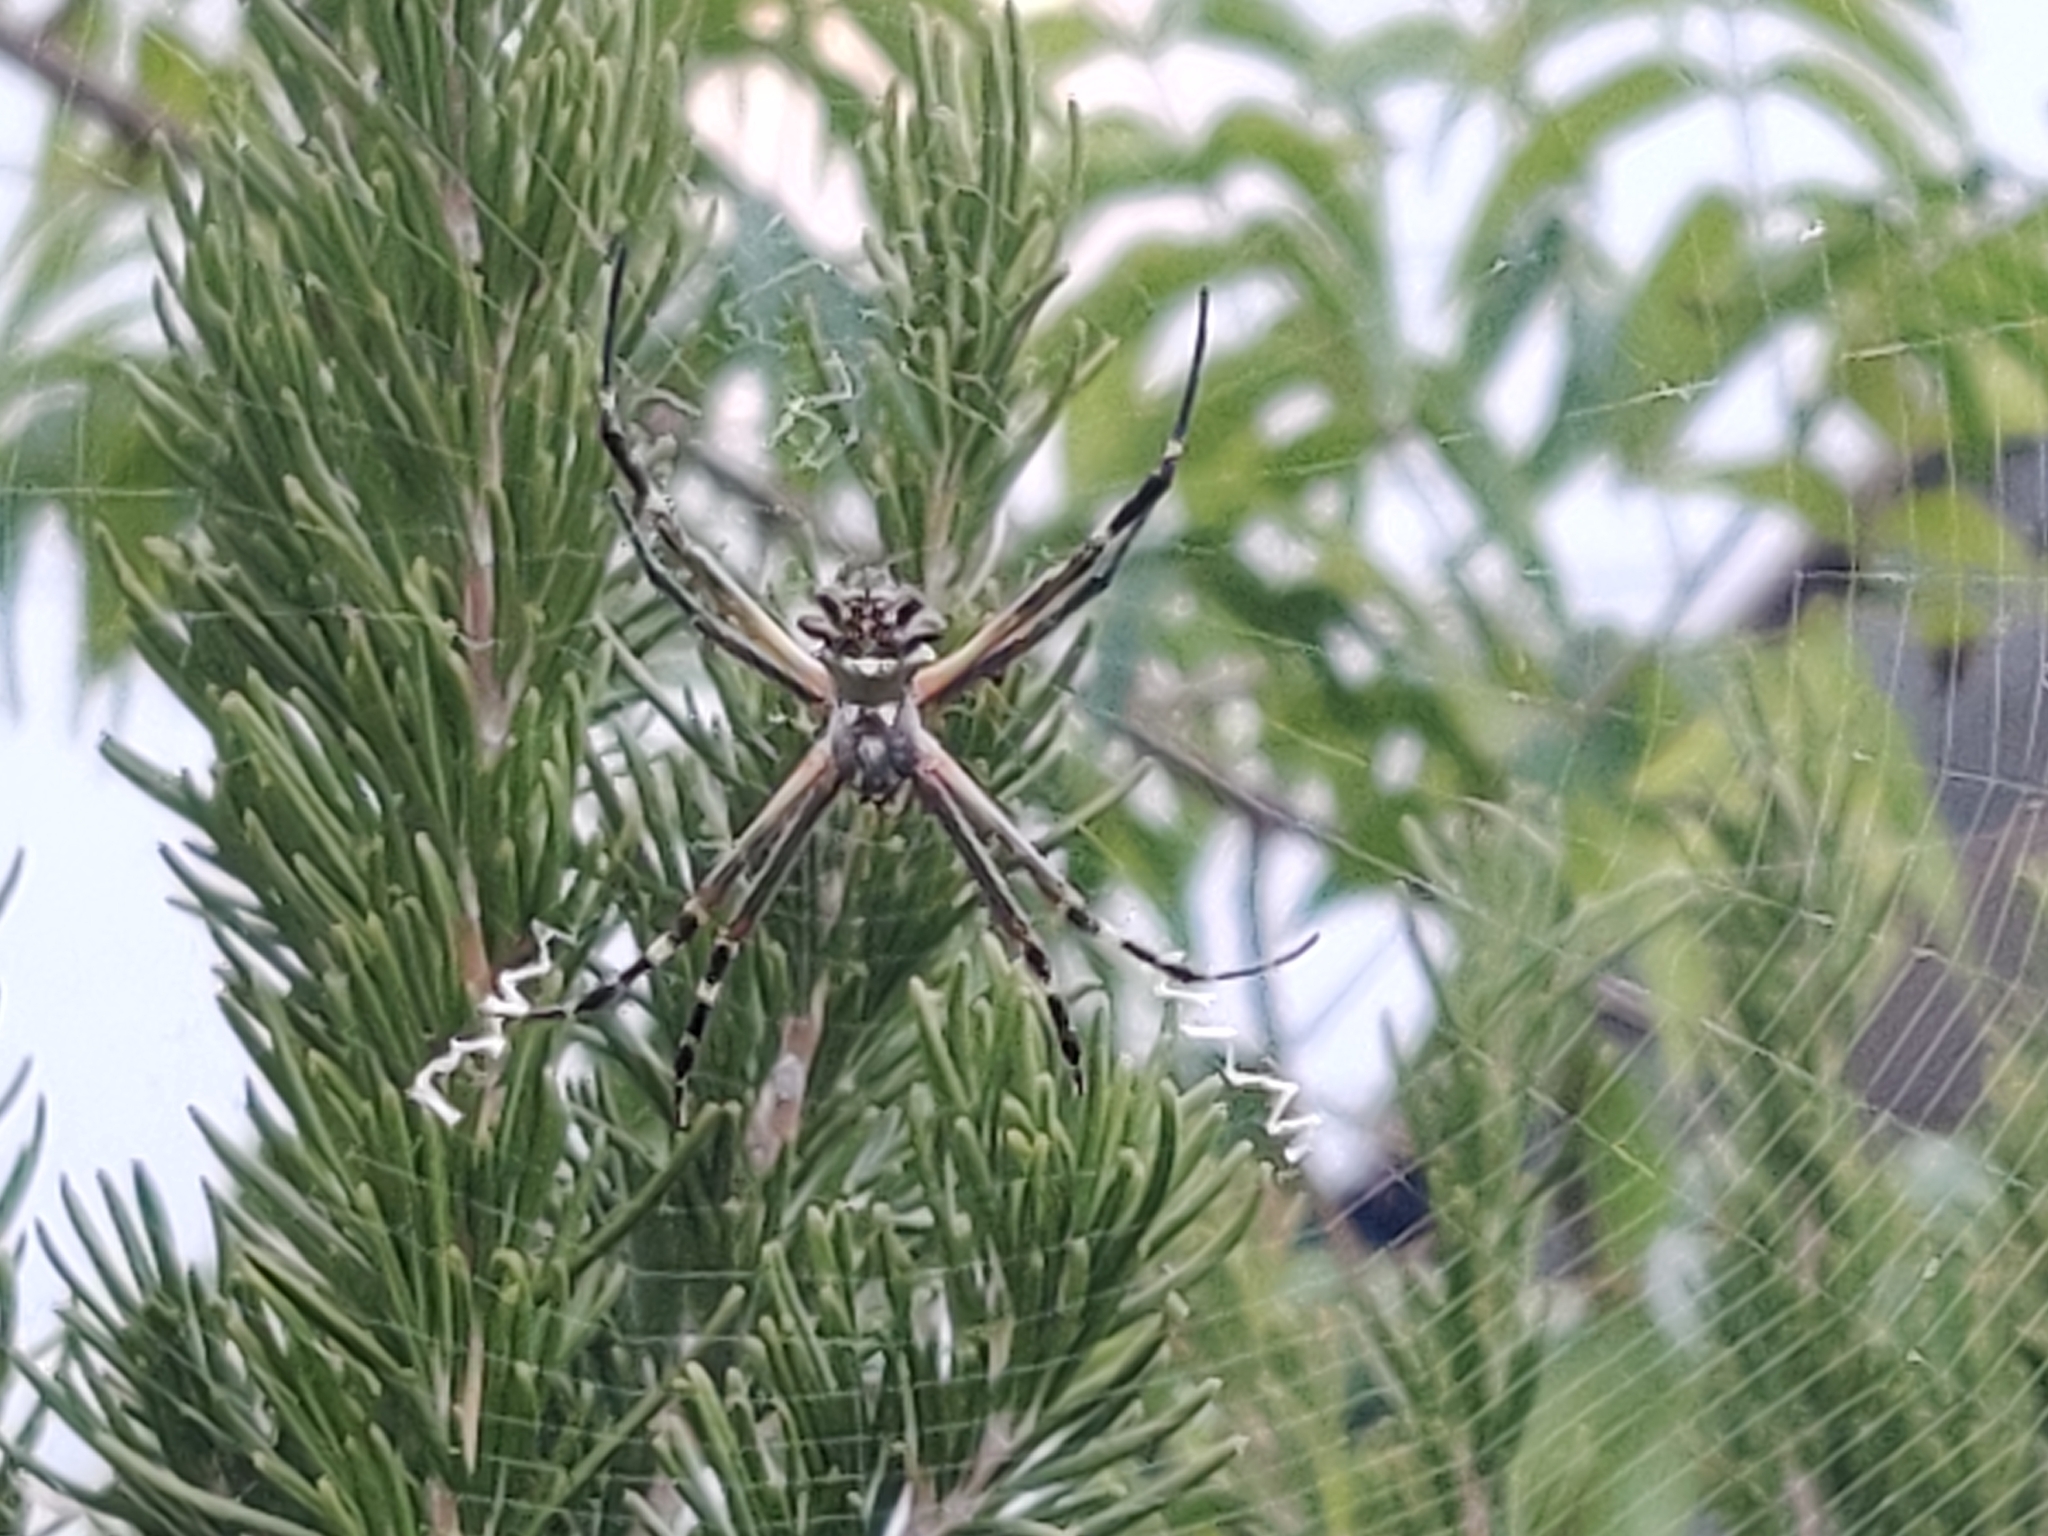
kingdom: Animalia
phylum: Arthropoda
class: Arachnida
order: Araneae
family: Araneidae
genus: Argiope
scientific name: Argiope argentata
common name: Orb weavers
